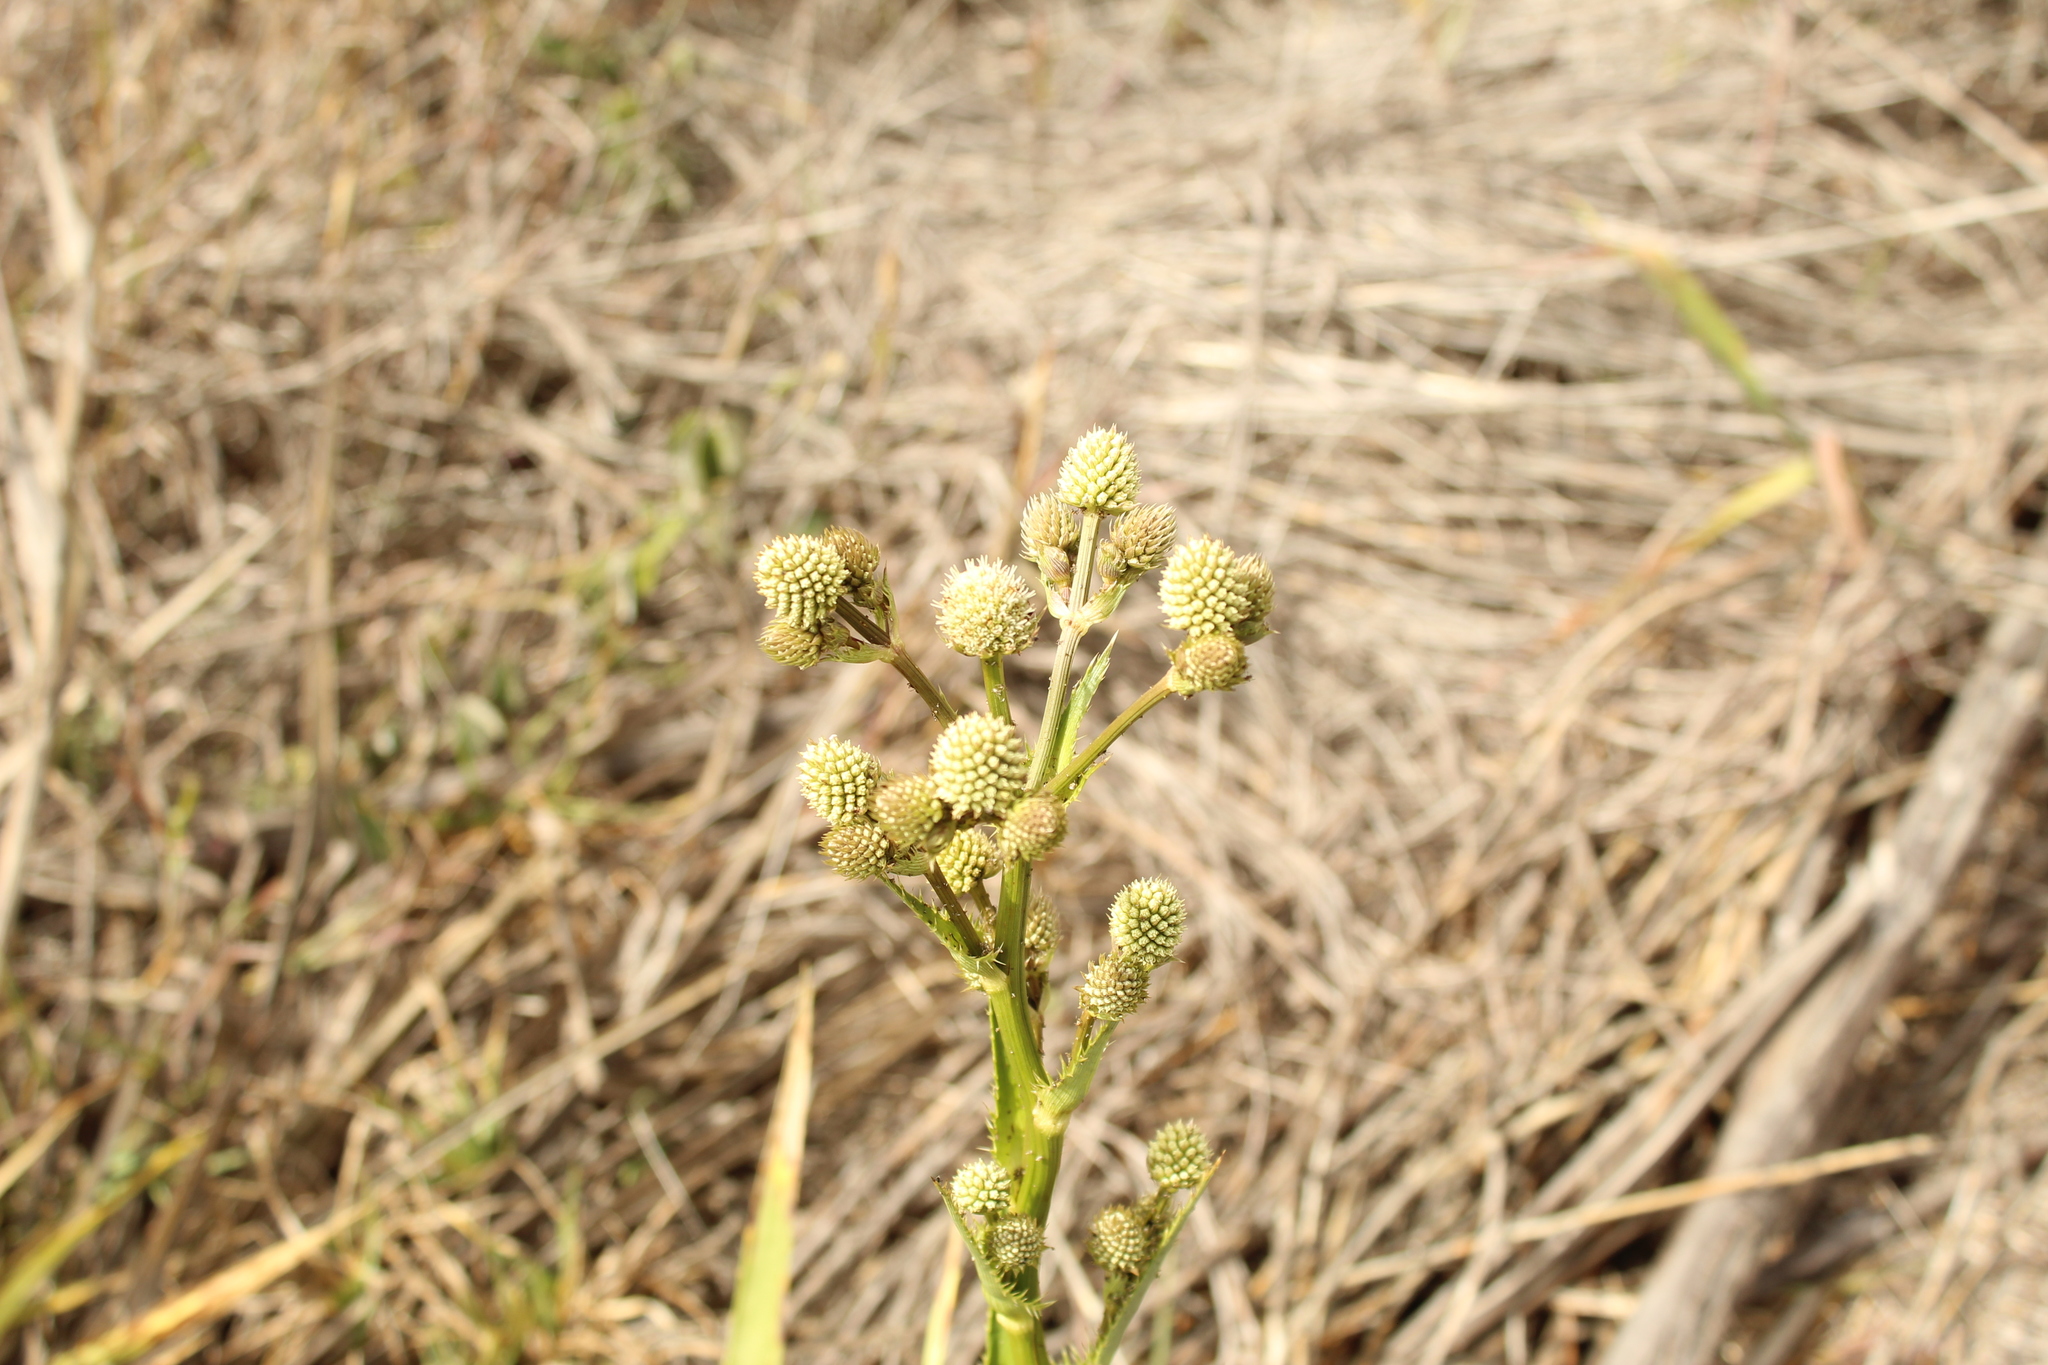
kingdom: Plantae
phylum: Tracheophyta
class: Magnoliopsida
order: Apiales
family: Apiaceae
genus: Eryngium
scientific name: Eryngium humboldtii
